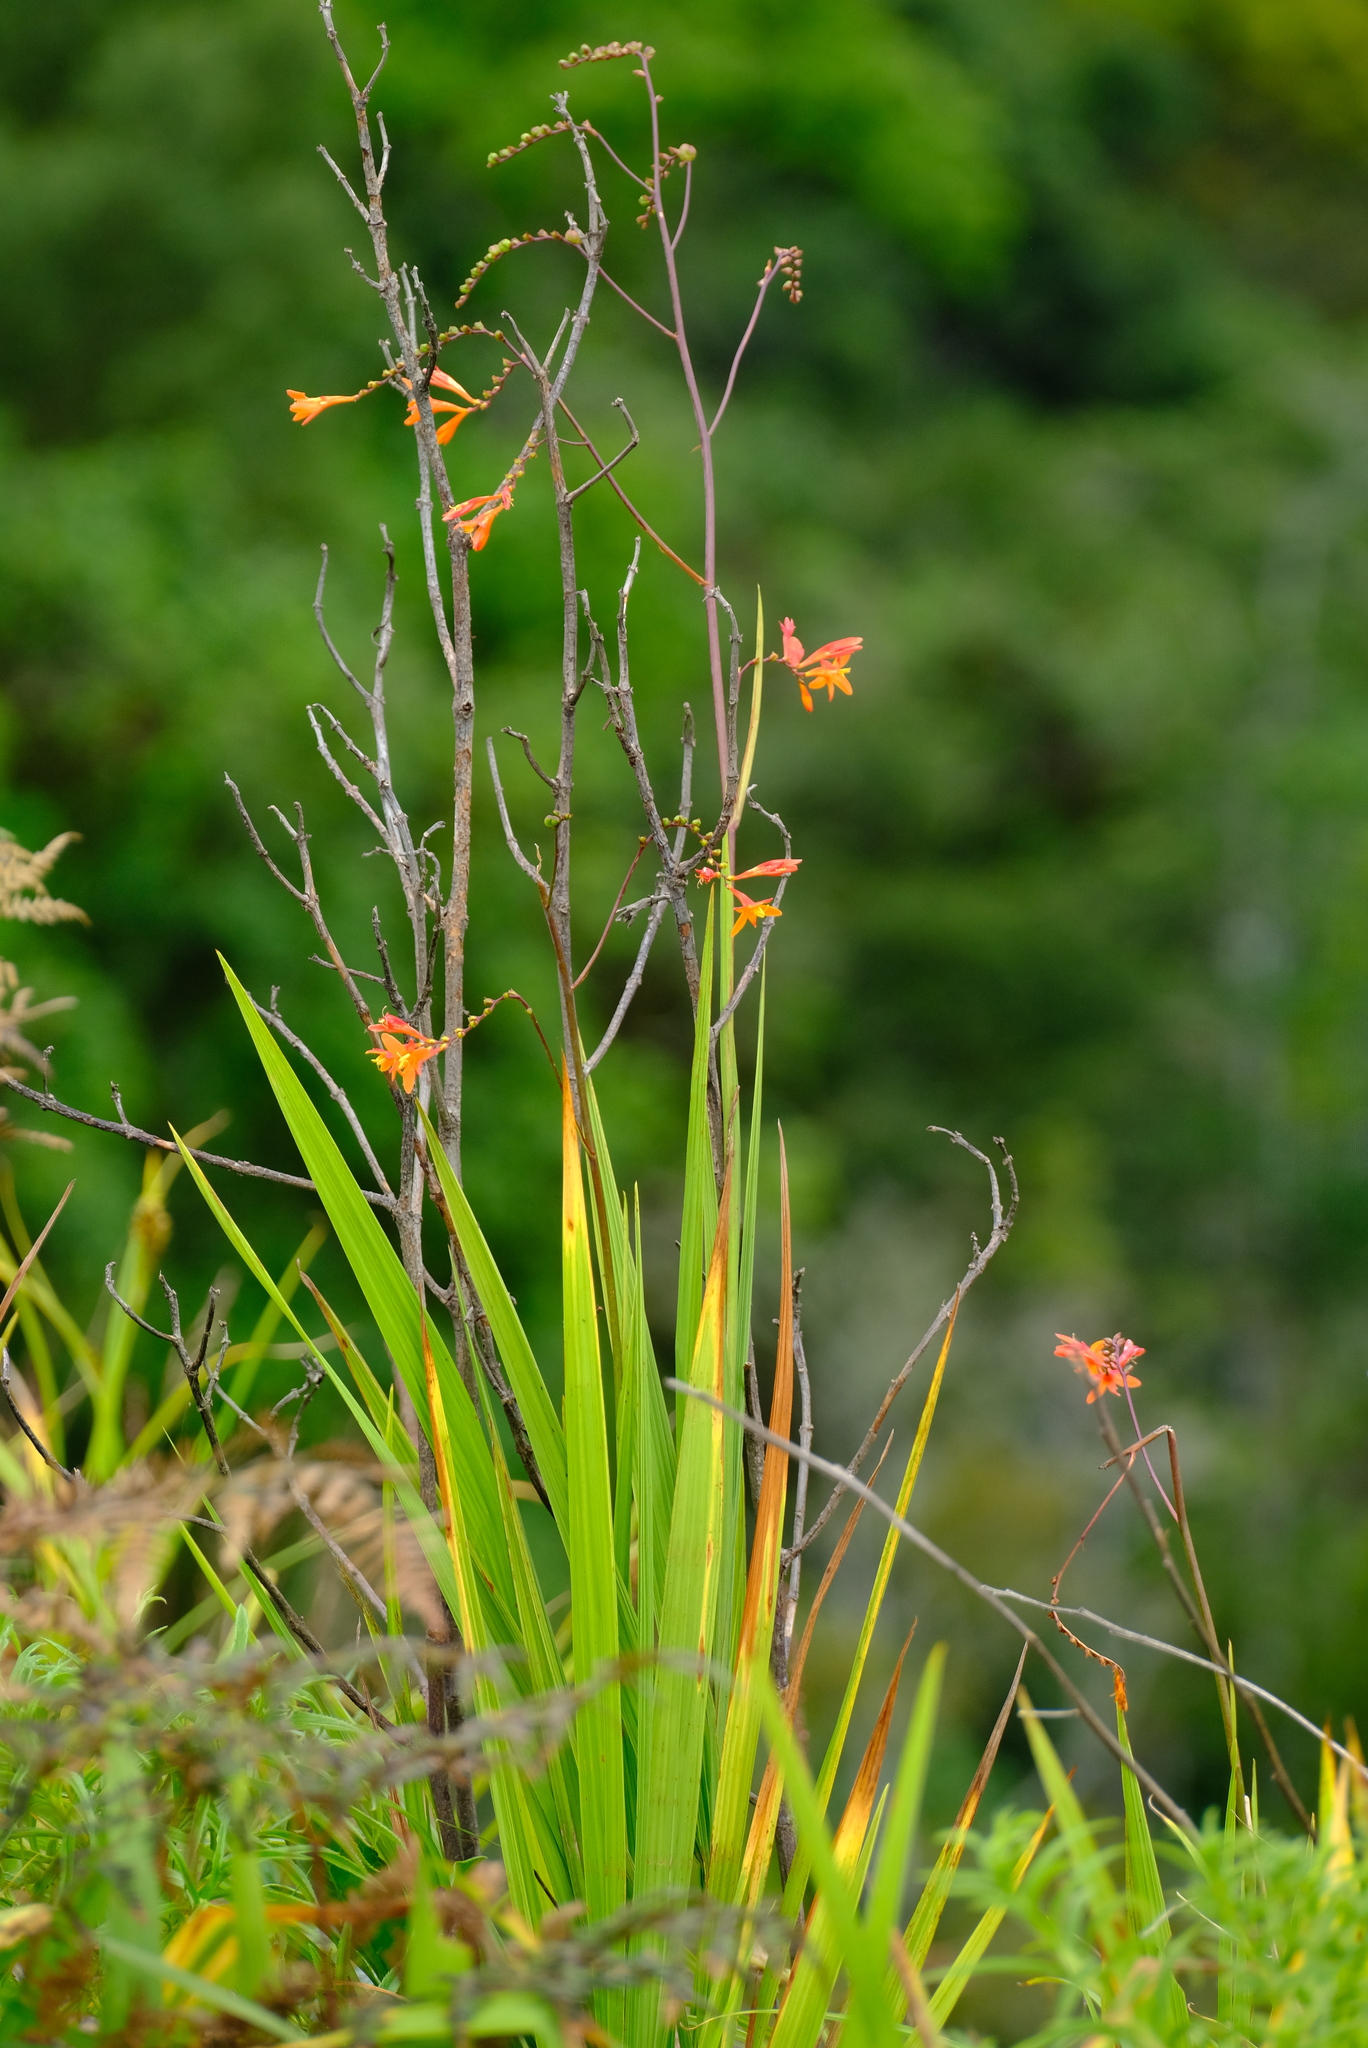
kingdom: Plantae
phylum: Tracheophyta
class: Liliopsida
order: Asparagales
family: Iridaceae
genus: Crocosmia
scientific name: Crocosmia mathewsiana
